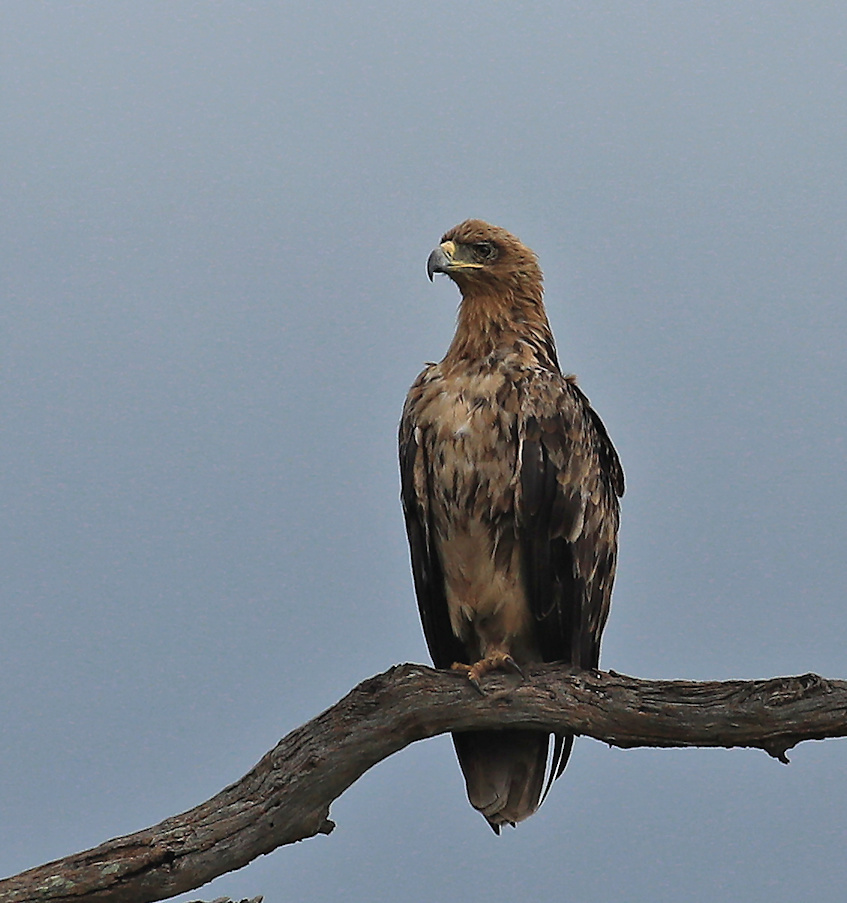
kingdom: Animalia
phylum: Chordata
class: Aves
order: Accipitriformes
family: Accipitridae
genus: Aquila
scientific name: Aquila rapax
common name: Tawny eagle
